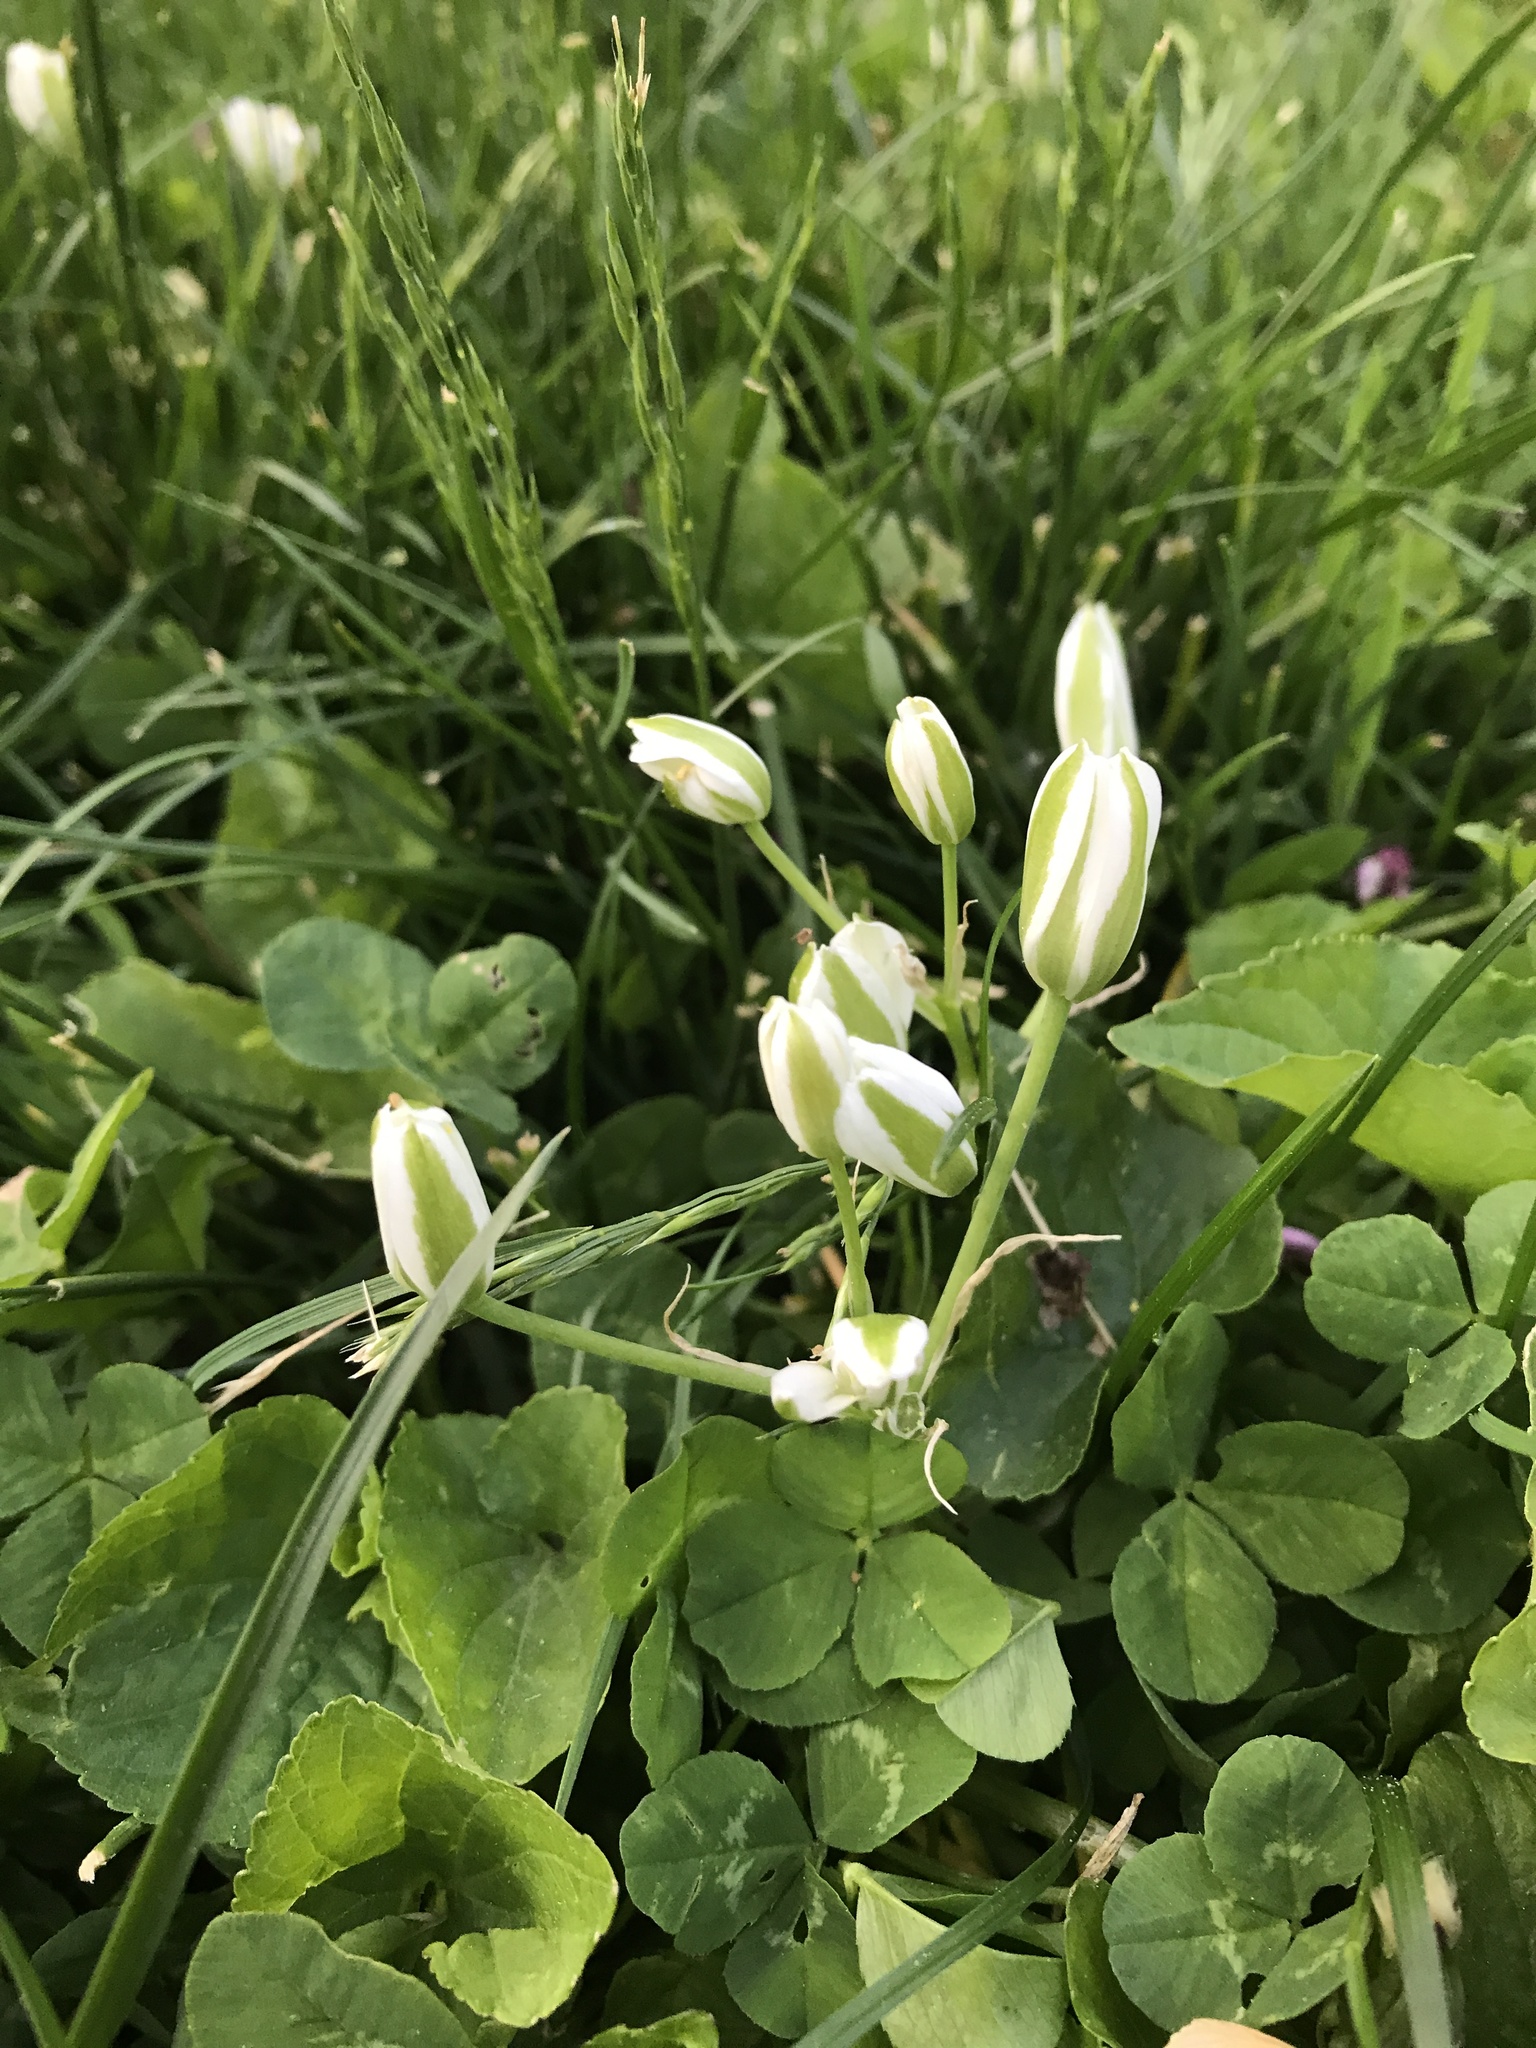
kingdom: Plantae
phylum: Tracheophyta
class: Liliopsida
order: Asparagales
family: Asparagaceae
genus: Ornithogalum
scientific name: Ornithogalum umbellatum
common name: Garden star-of-bethlehem
